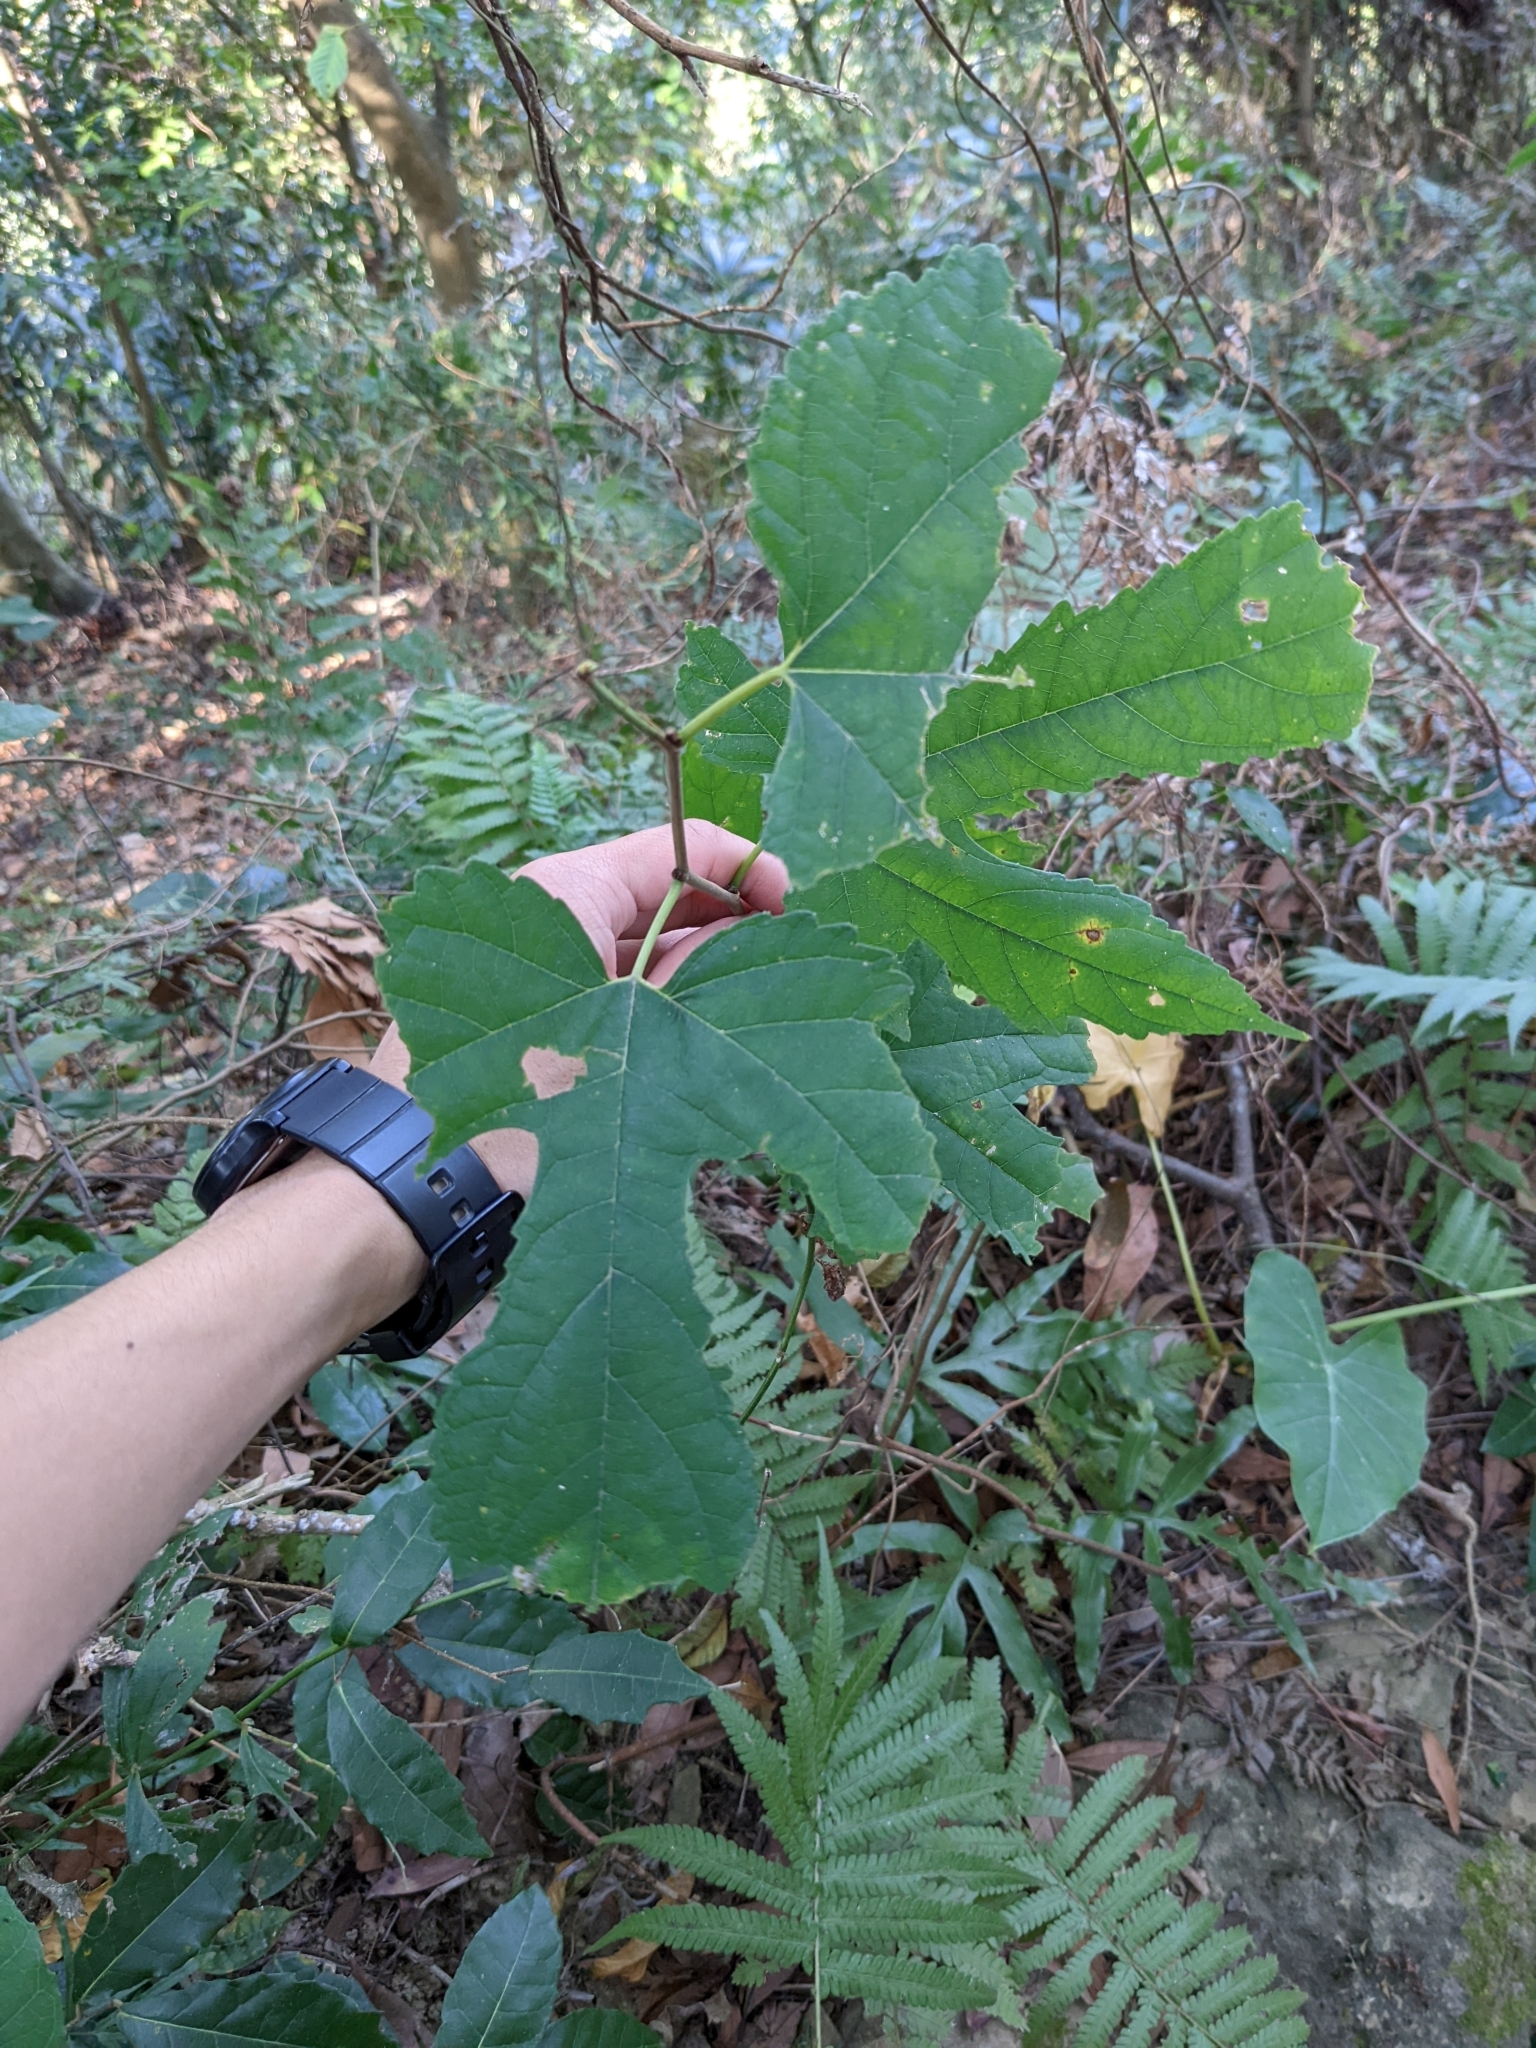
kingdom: Plantae
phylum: Tracheophyta
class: Magnoliopsida
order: Rosales
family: Moraceae
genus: Morus
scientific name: Morus indica
